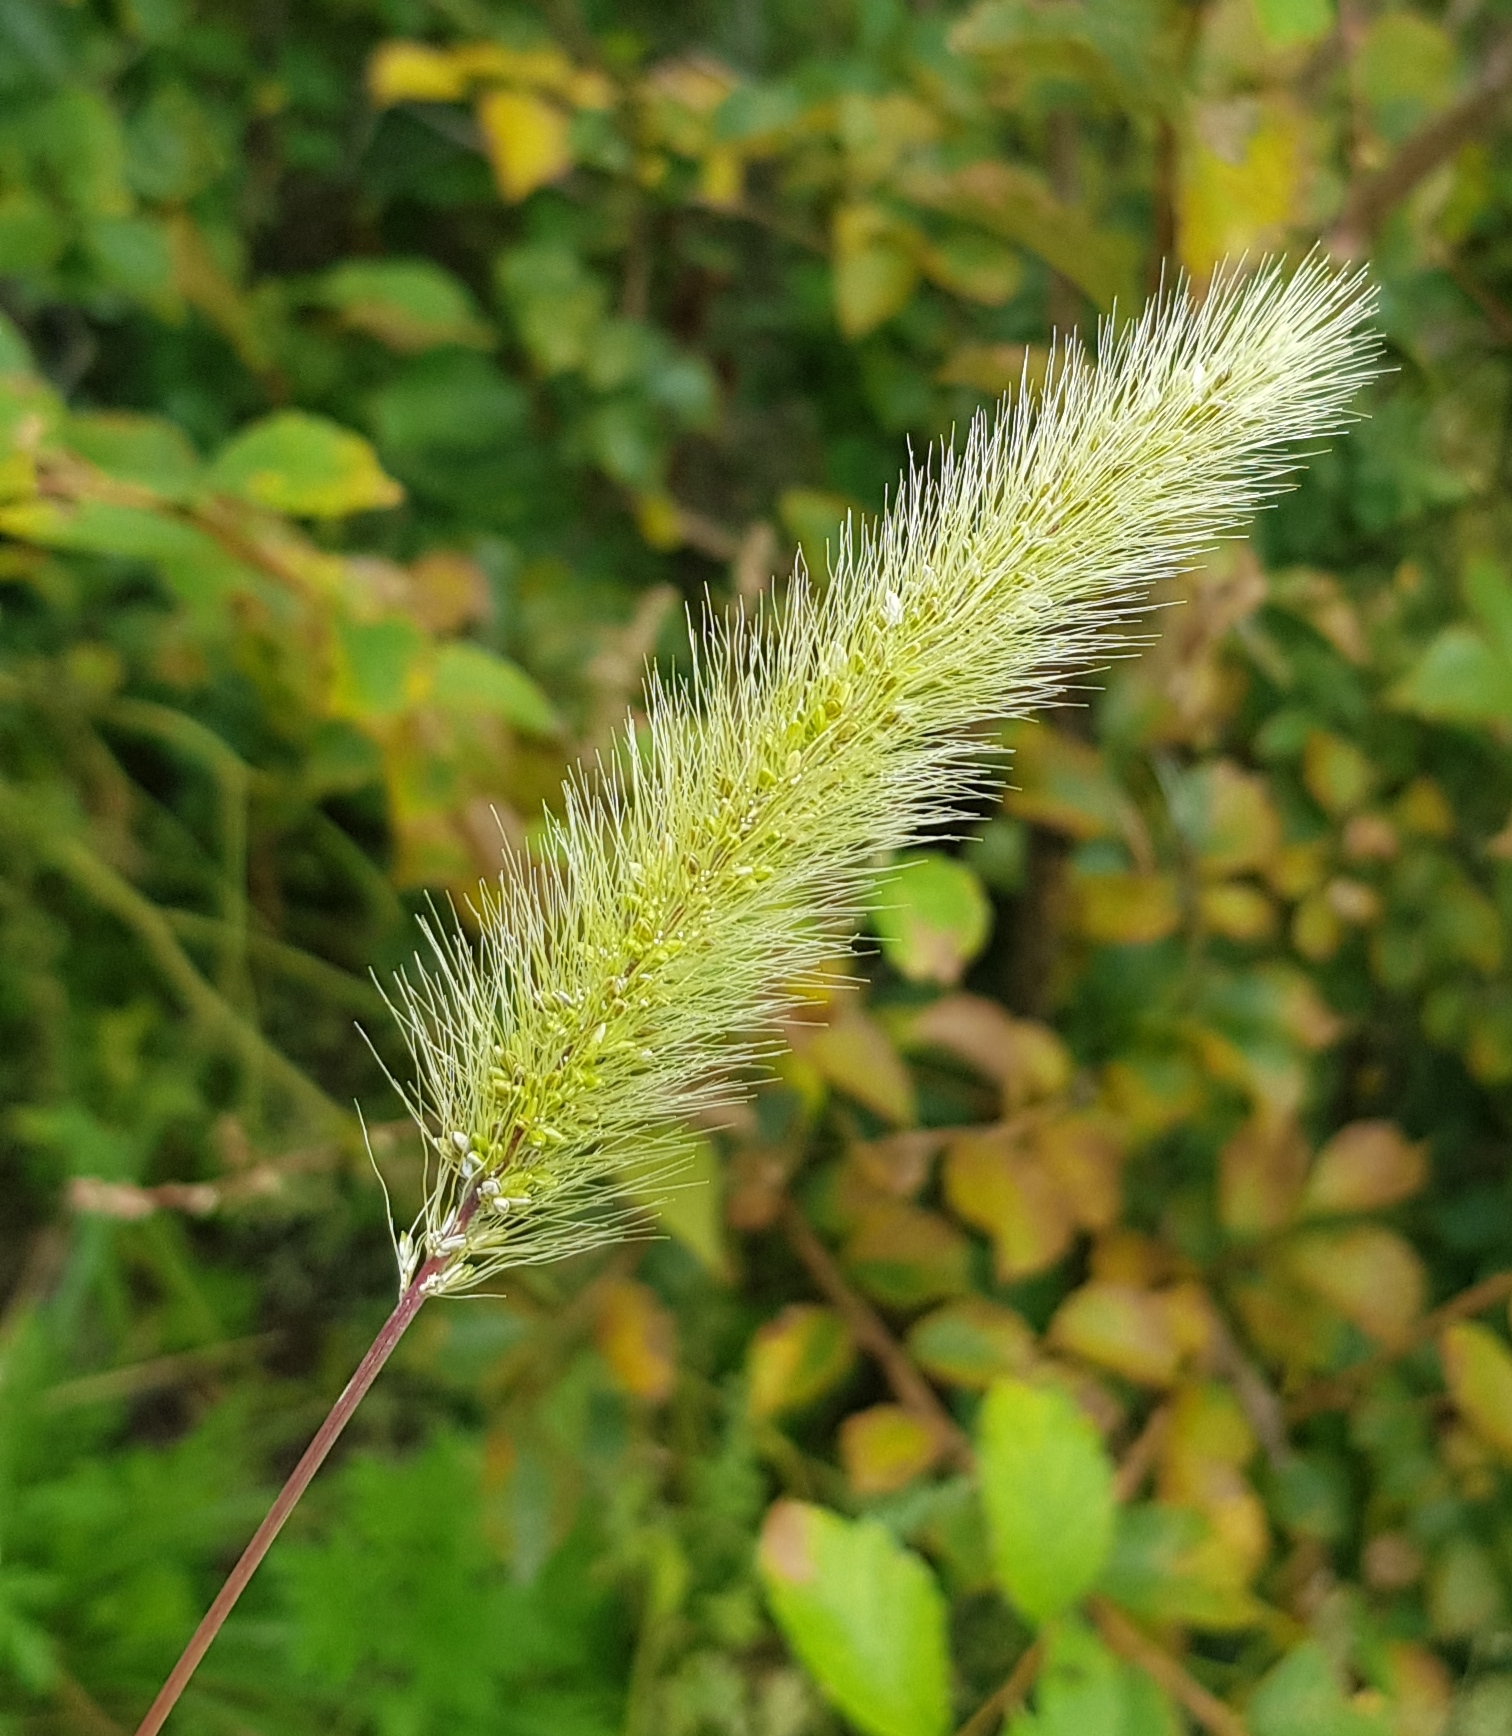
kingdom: Plantae
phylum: Tracheophyta
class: Liliopsida
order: Poales
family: Poaceae
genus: Setaria
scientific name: Setaria viridis
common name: Green bristlegrass
